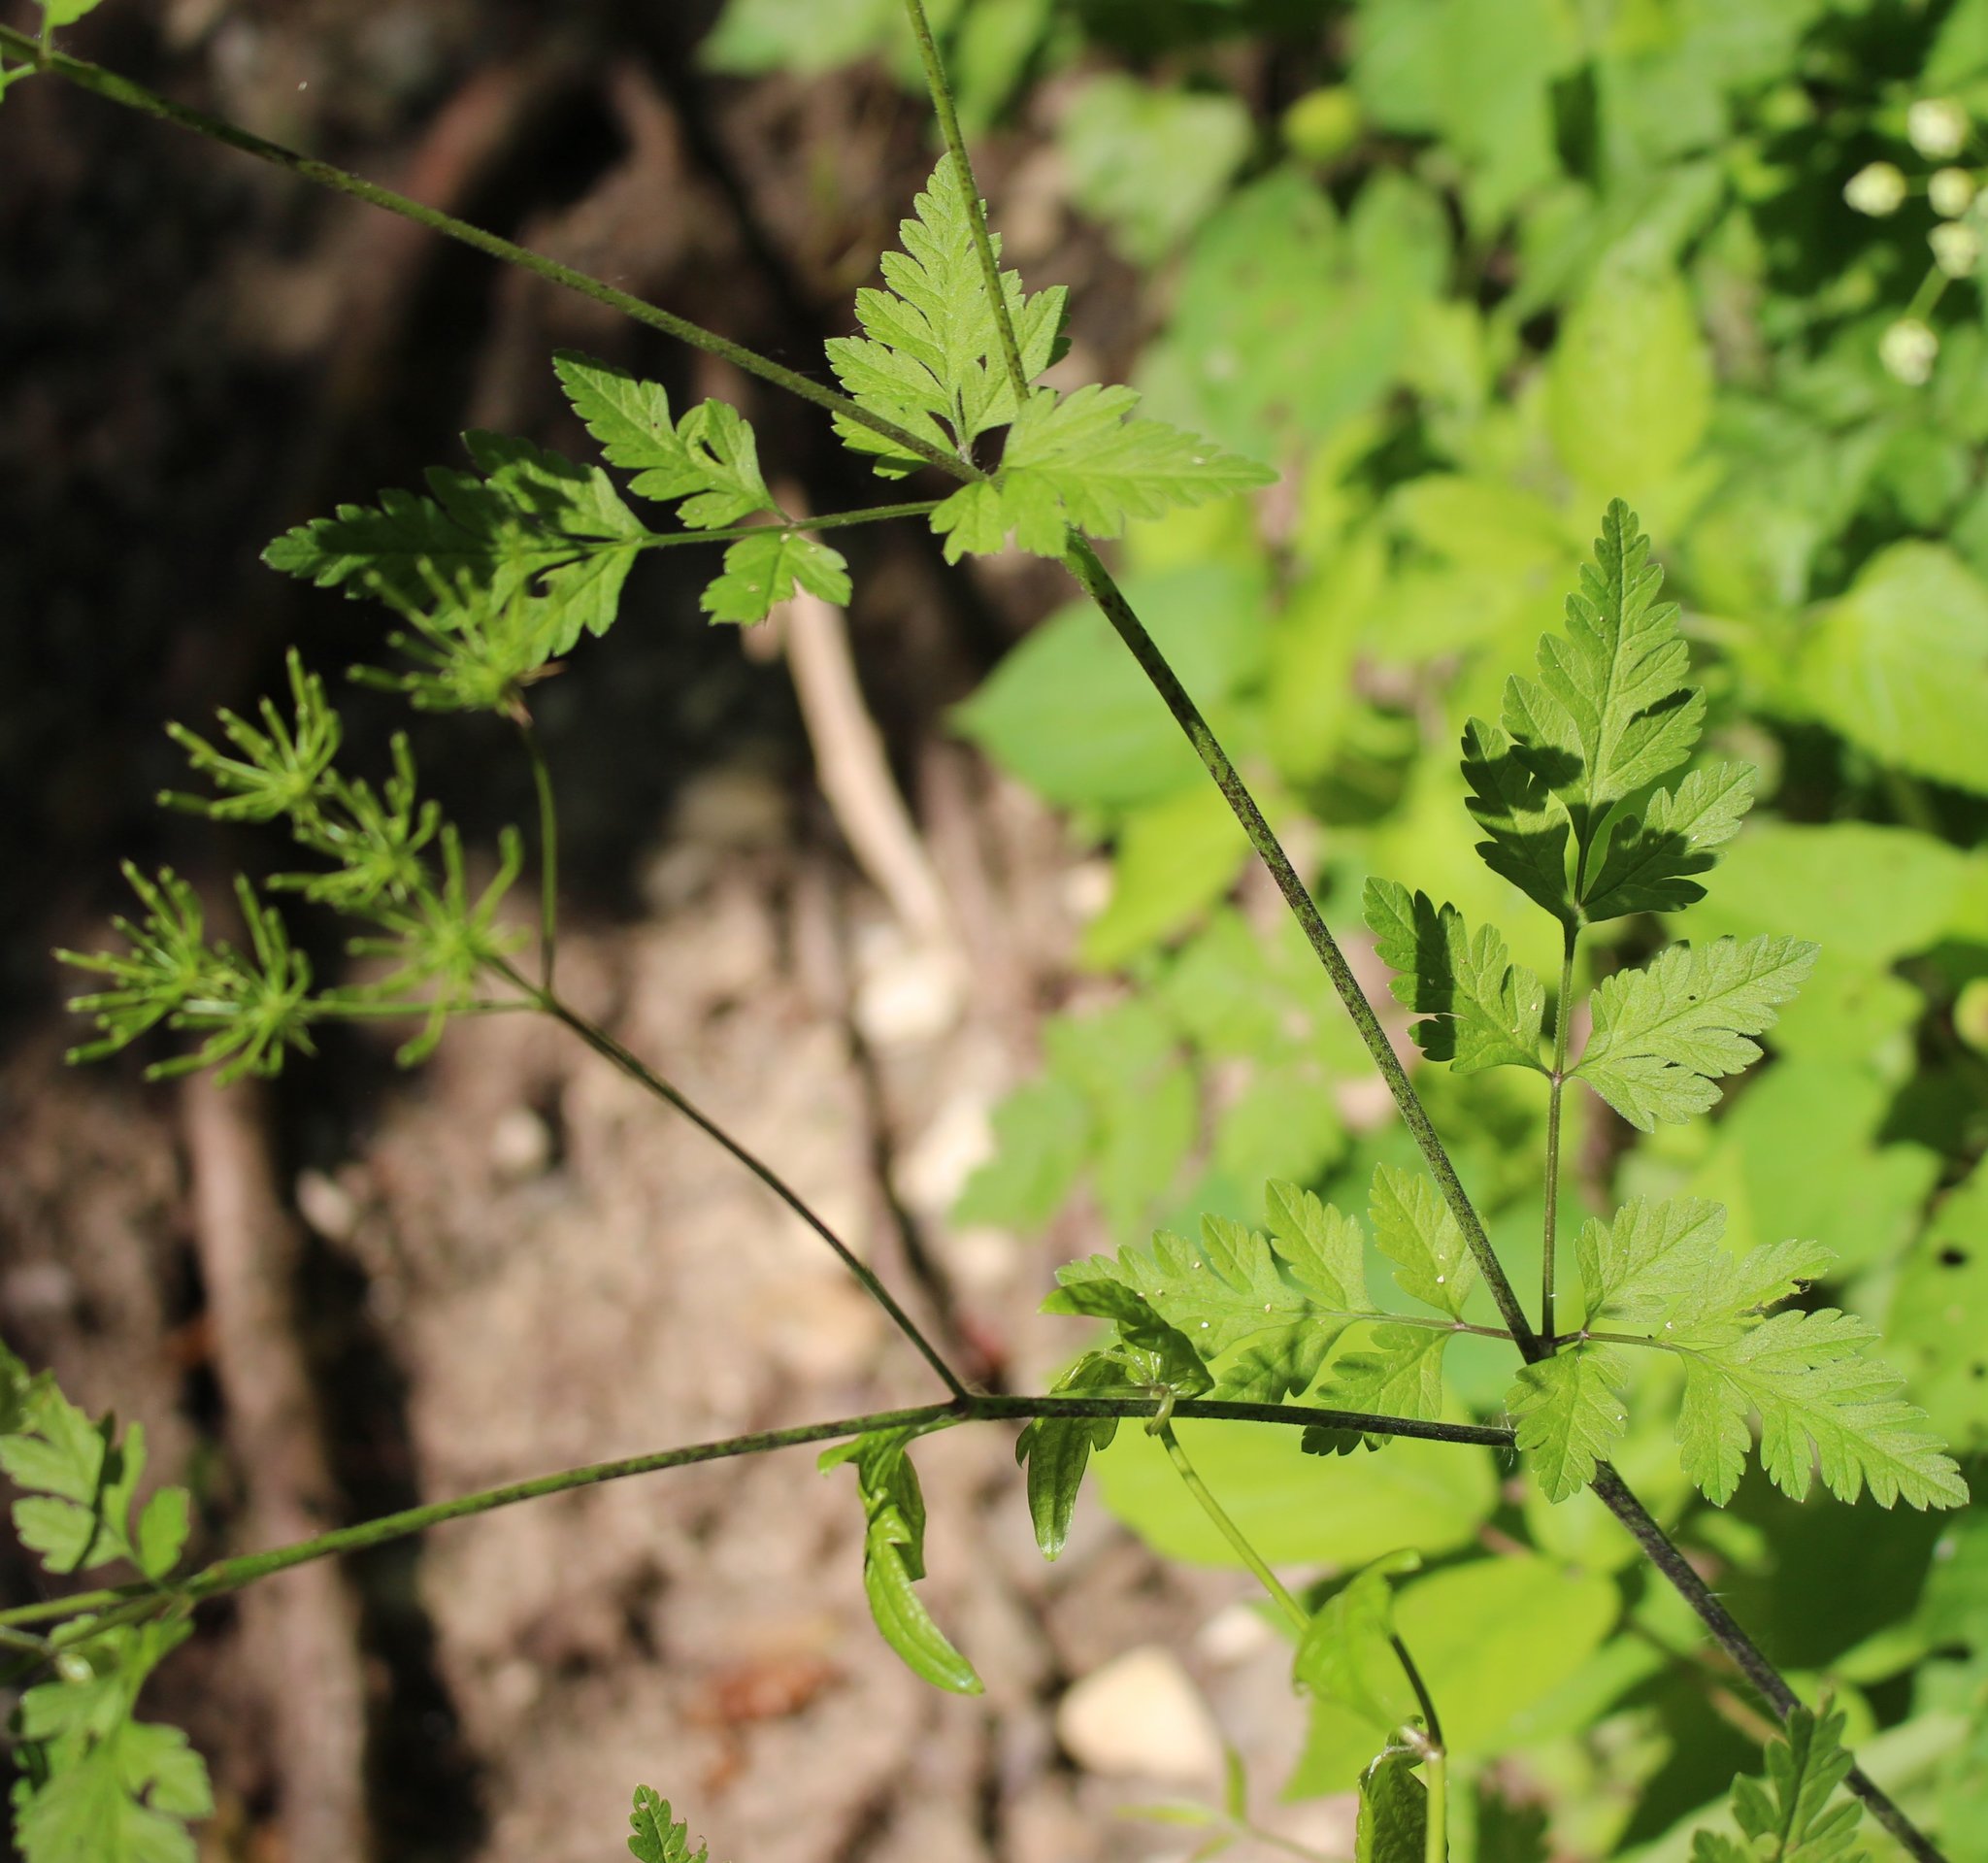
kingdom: Plantae
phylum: Tracheophyta
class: Magnoliopsida
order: Apiales
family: Apiaceae
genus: Chaerophyllum
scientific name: Chaerophyllum temulum
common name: Rough chervil
